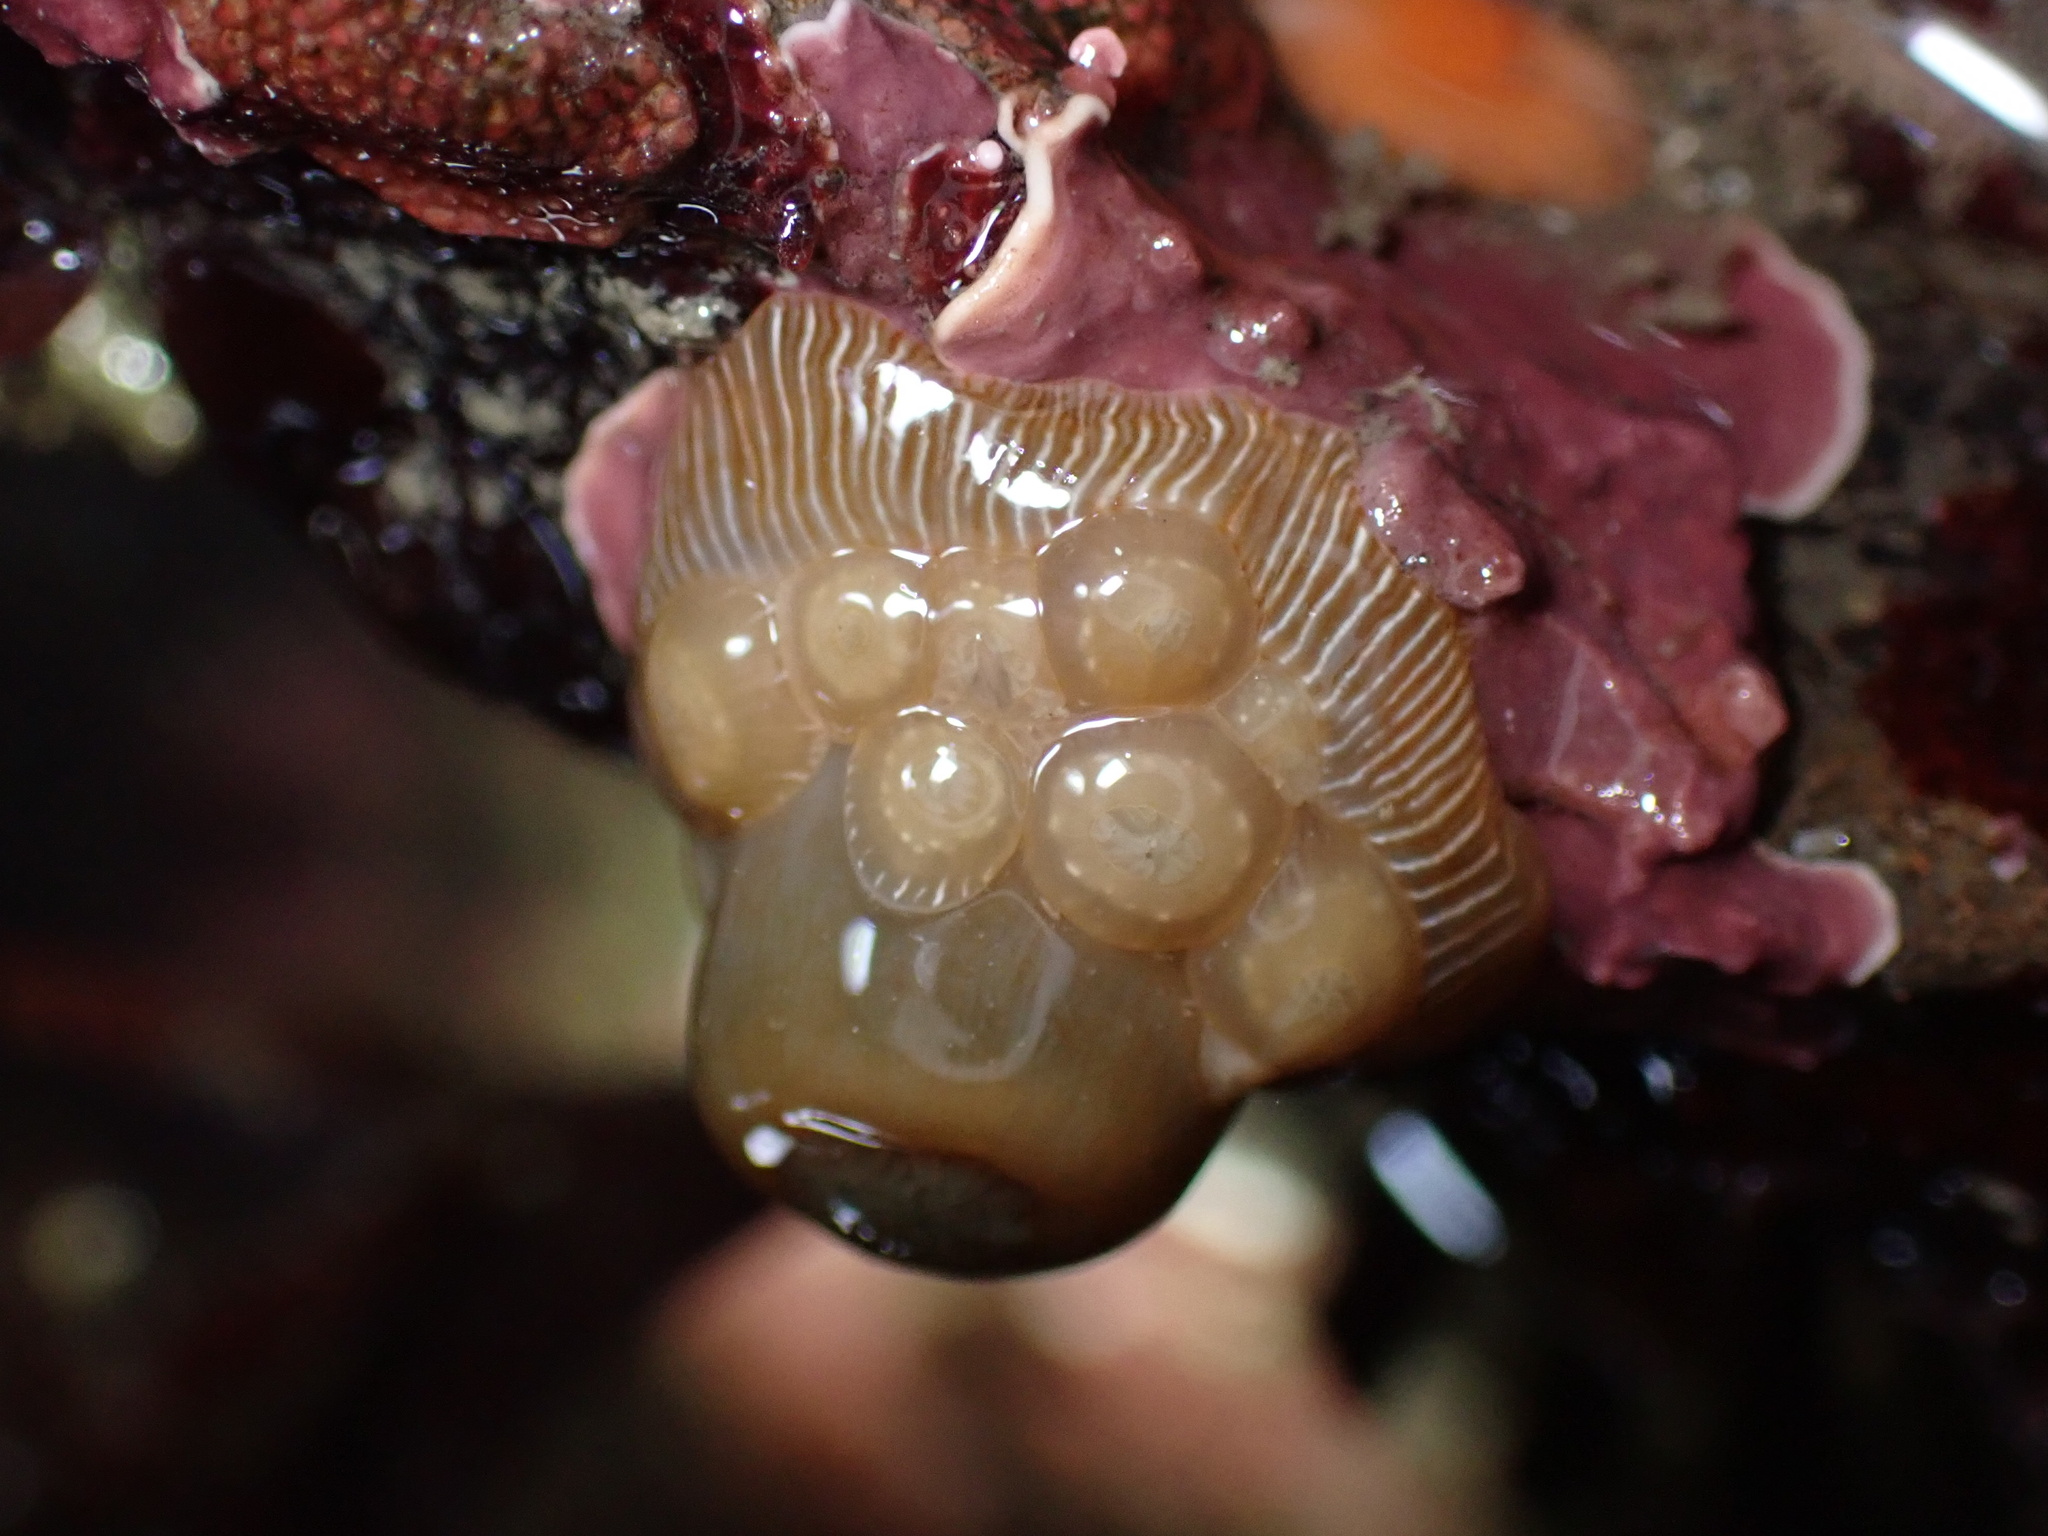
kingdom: Animalia
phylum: Cnidaria
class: Anthozoa
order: Actiniaria
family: Actiniidae
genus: Epiactis
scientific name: Epiactis prolifera
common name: Brooding anemone
